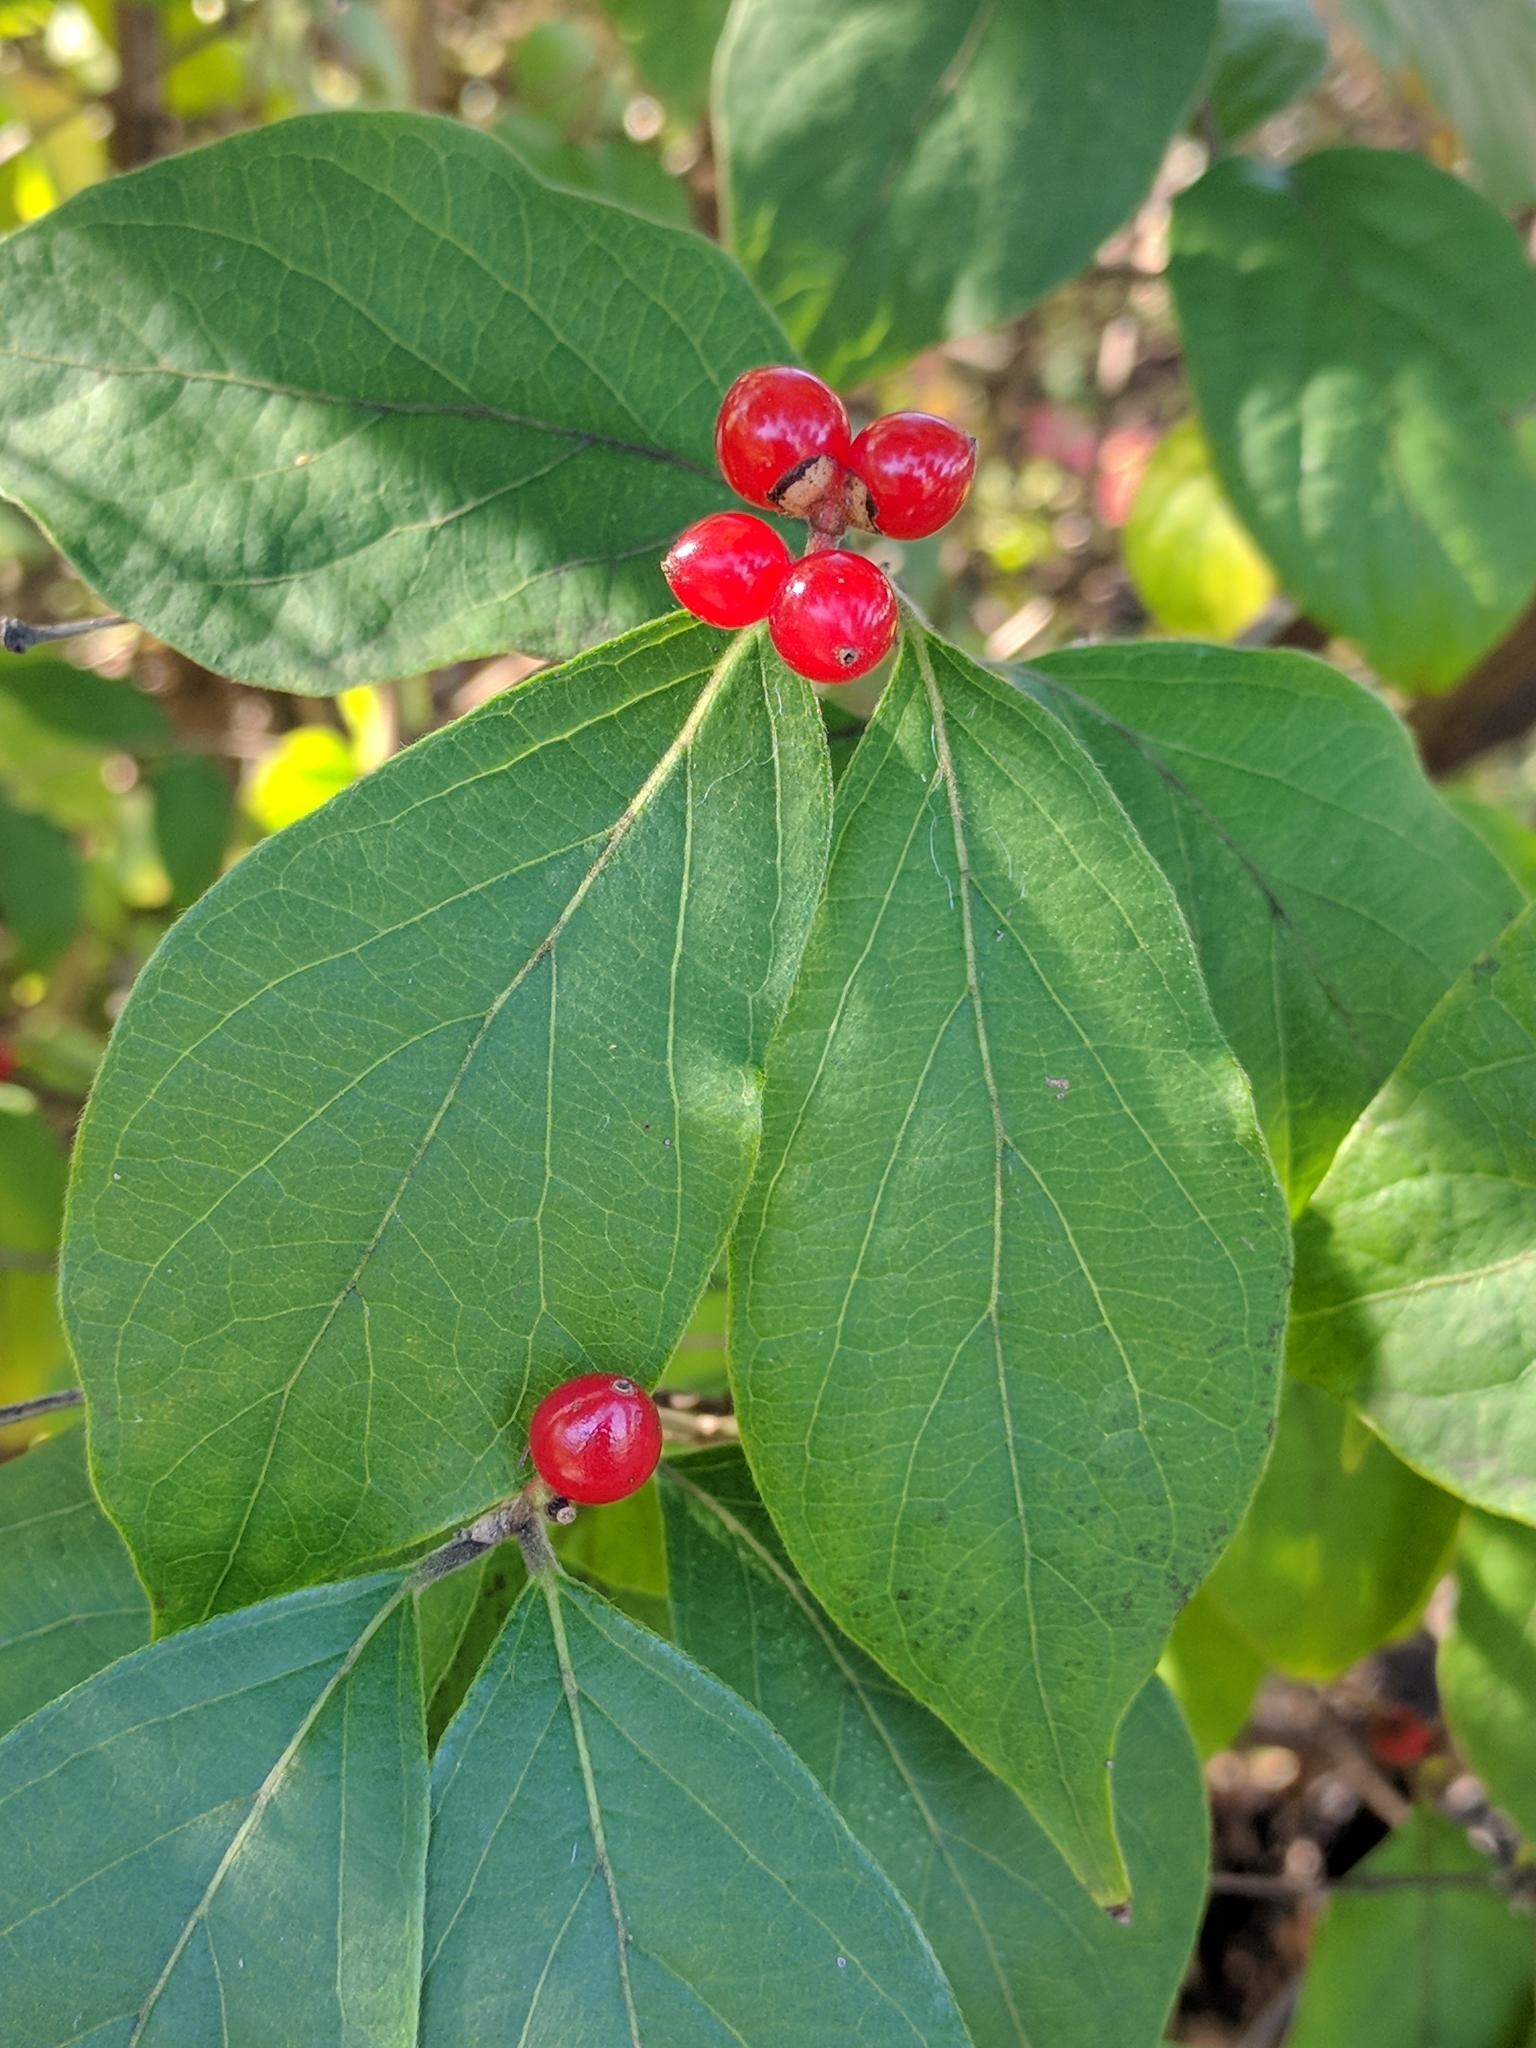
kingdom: Plantae
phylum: Tracheophyta
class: Magnoliopsida
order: Dipsacales
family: Caprifoliaceae
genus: Lonicera
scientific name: Lonicera maackii
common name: Amur honeysuckle
